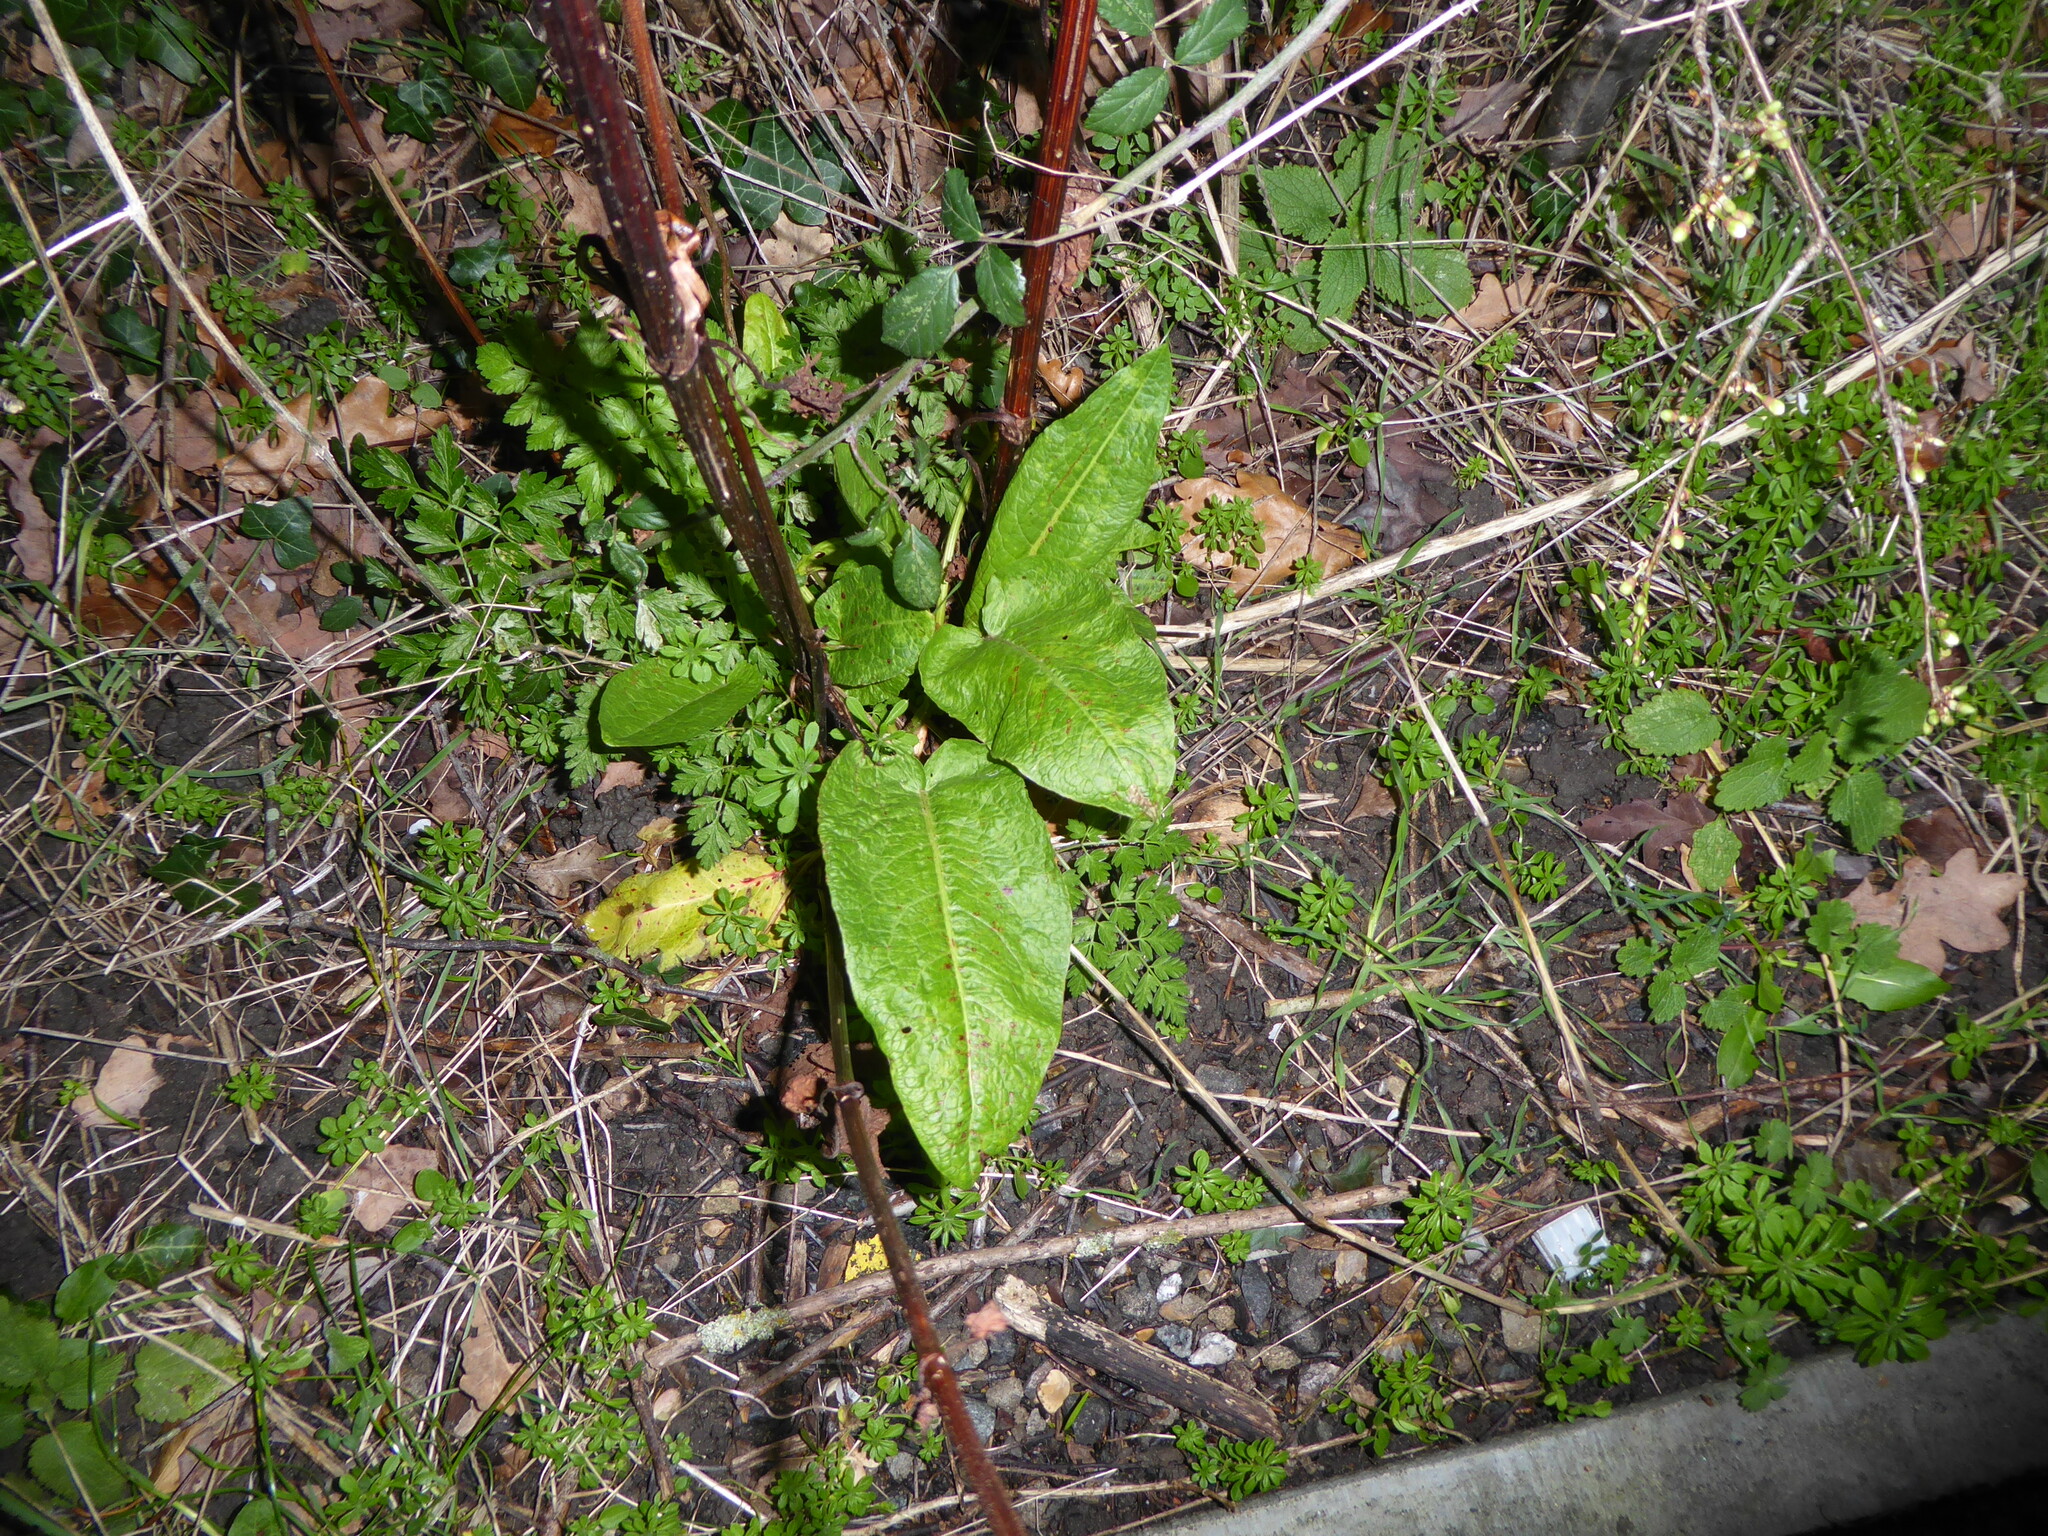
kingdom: Plantae
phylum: Tracheophyta
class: Magnoliopsida
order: Caryophyllales
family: Polygonaceae
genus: Rumex
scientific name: Rumex obtusifolius
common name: Bitter dock
